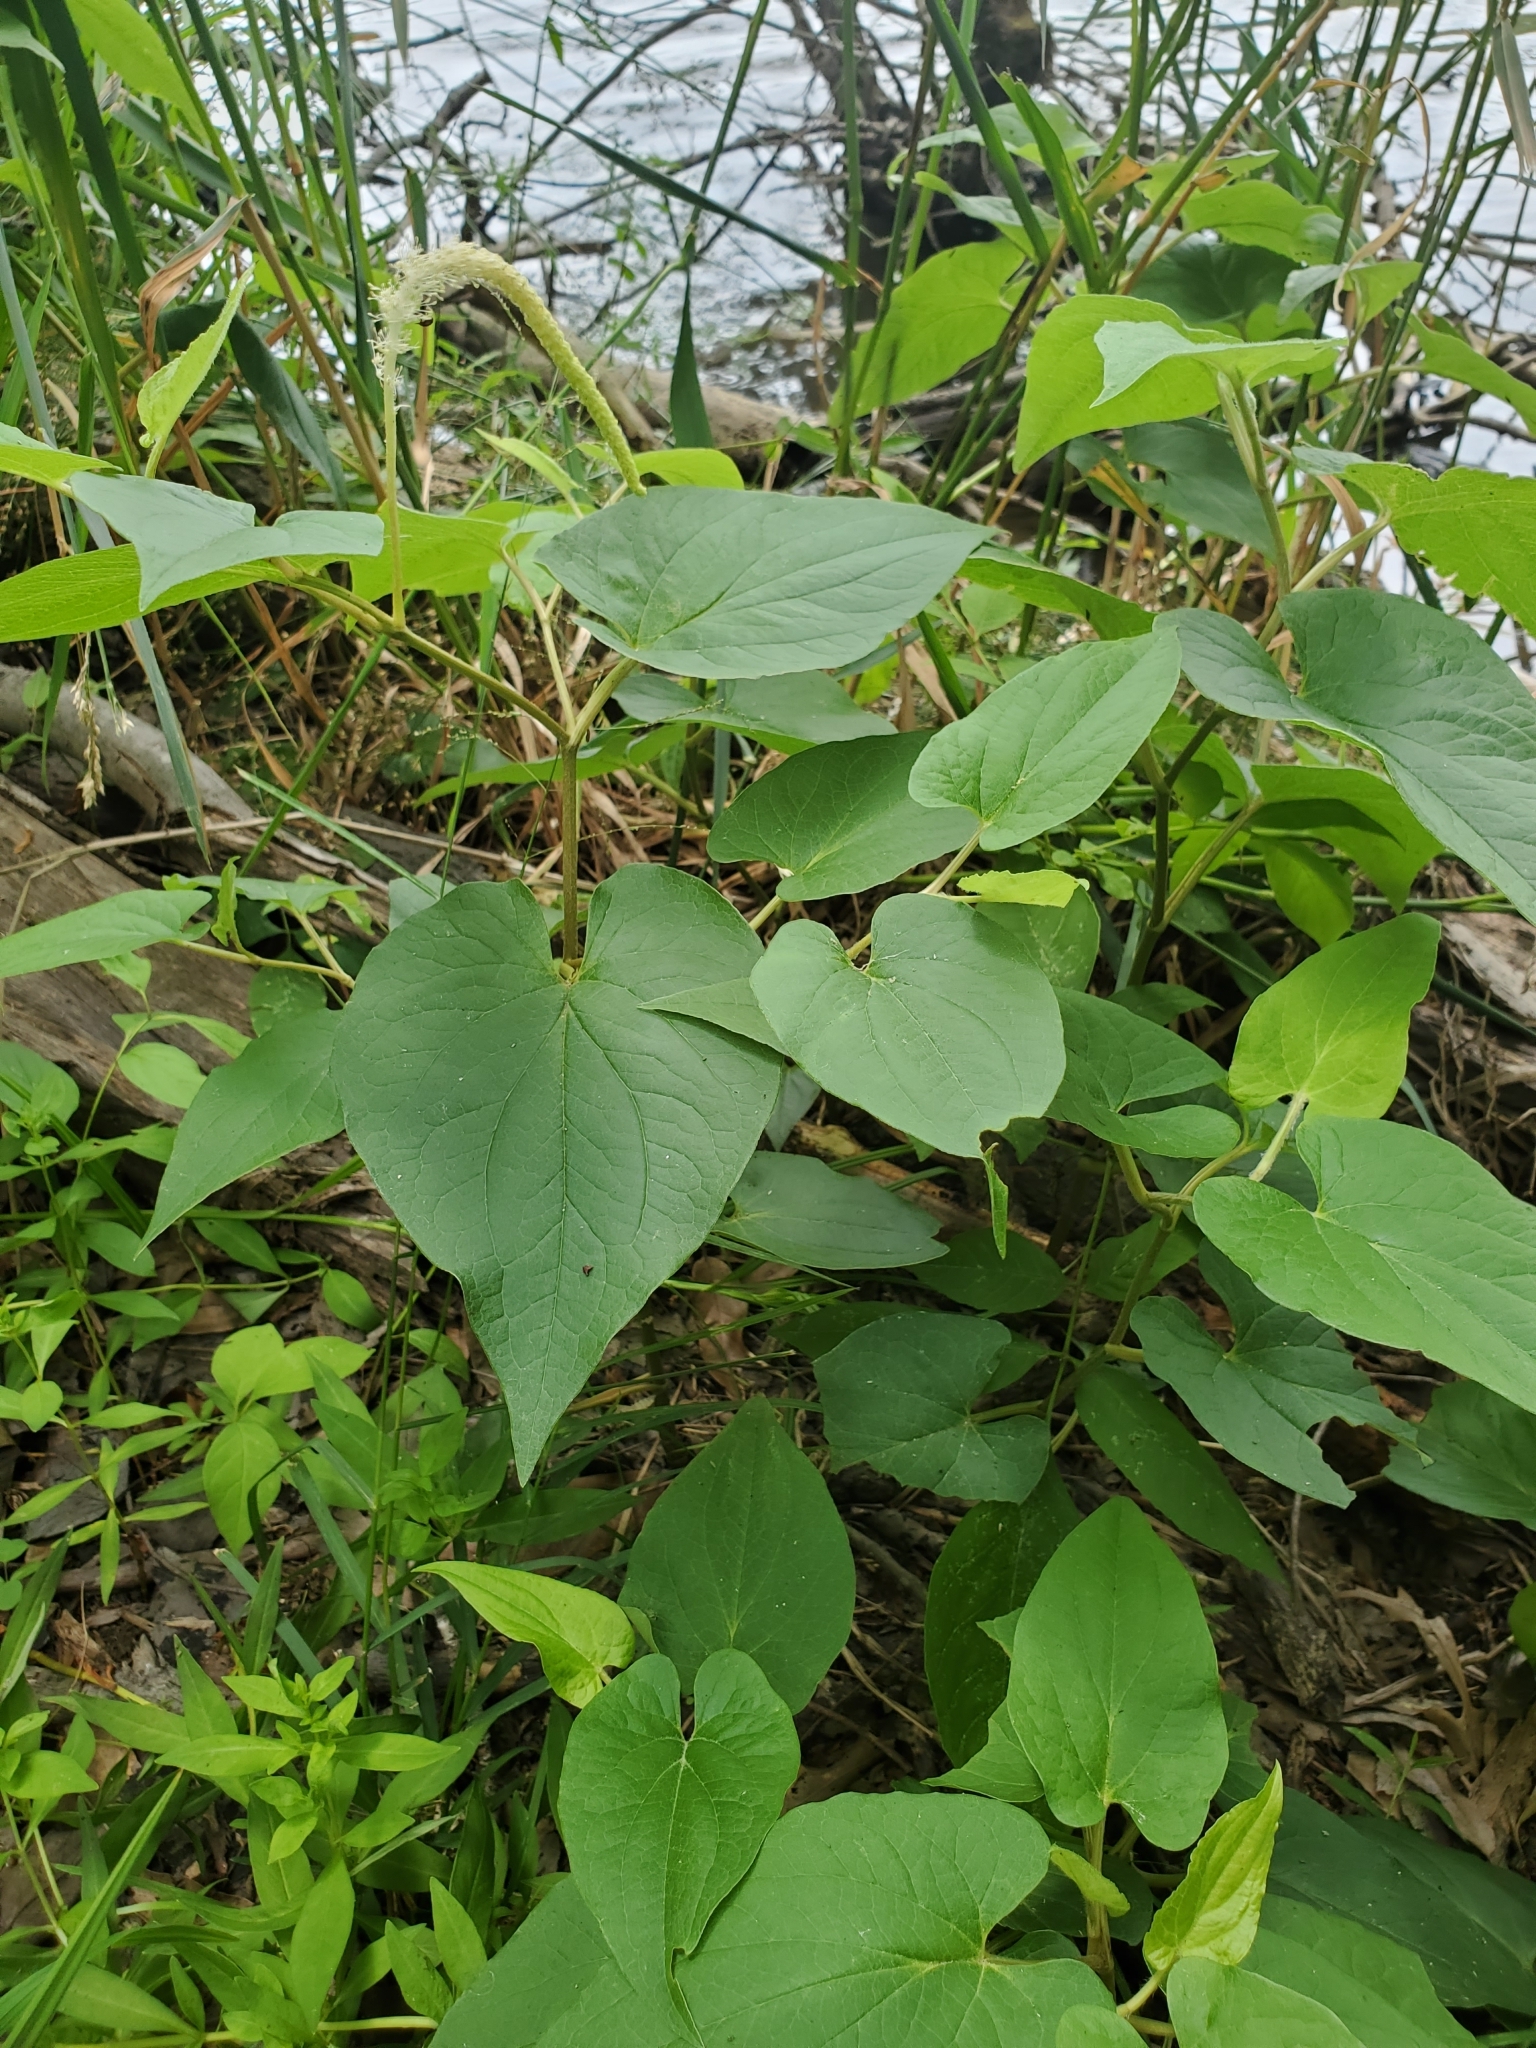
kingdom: Plantae
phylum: Tracheophyta
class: Magnoliopsida
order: Piperales
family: Saururaceae
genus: Saururus
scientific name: Saururus cernuus
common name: Lizard's-tail
